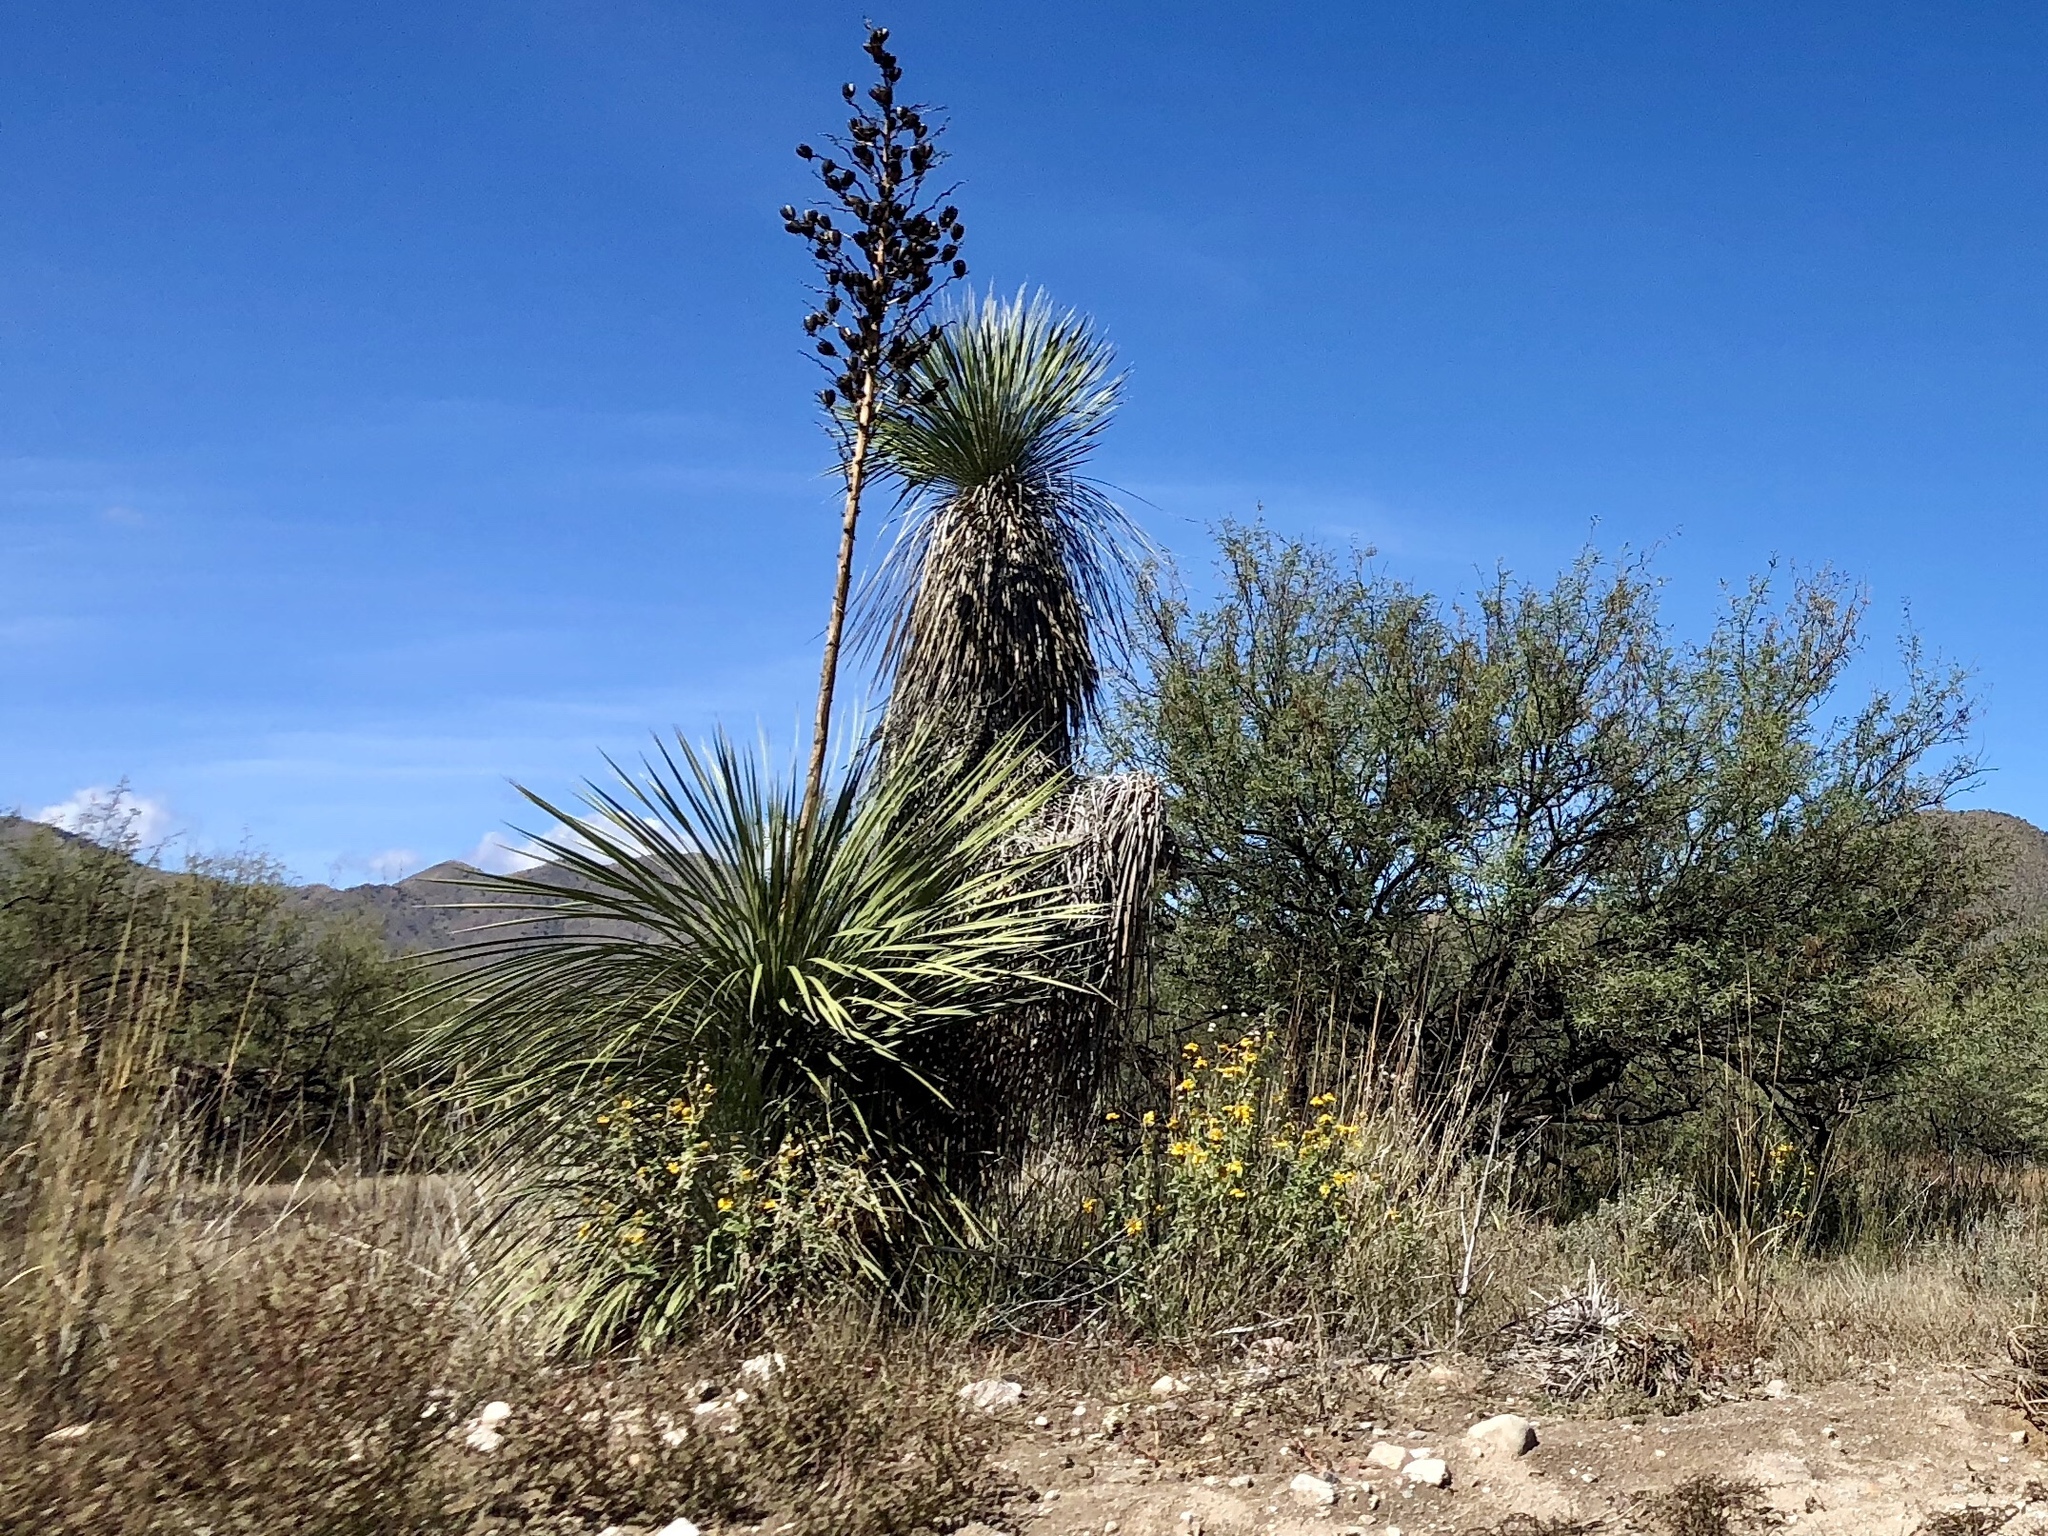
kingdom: Plantae
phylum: Tracheophyta
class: Liliopsida
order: Asparagales
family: Asparagaceae
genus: Yucca
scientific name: Yucca elata
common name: Palmella
